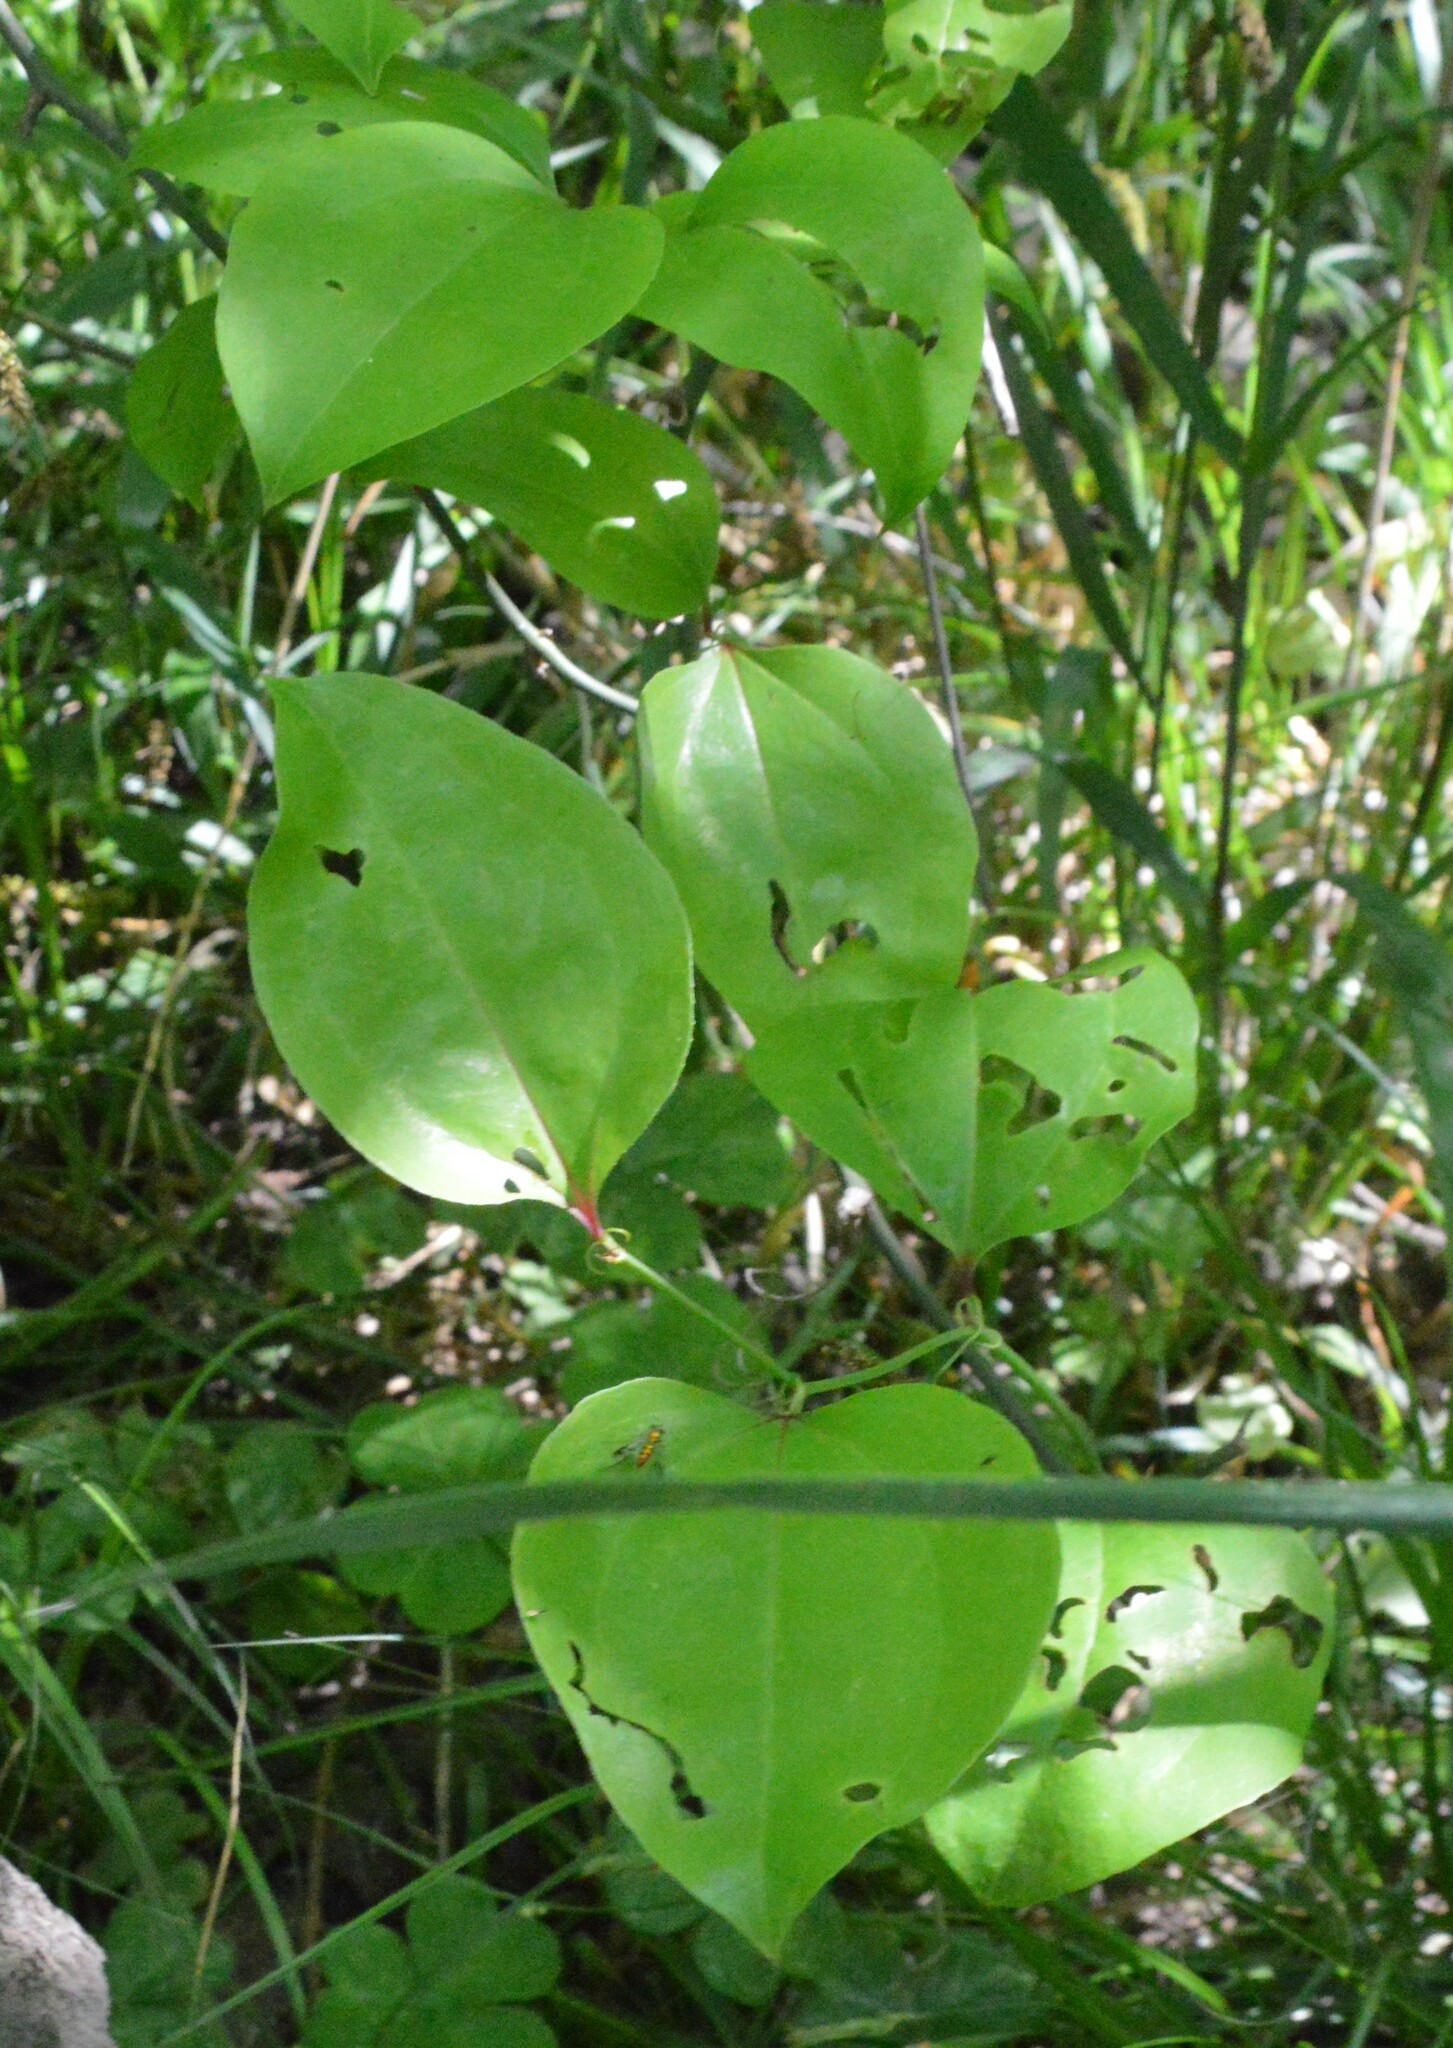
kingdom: Plantae
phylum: Tracheophyta
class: Liliopsida
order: Liliales
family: Smilacaceae
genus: Smilax
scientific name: Smilax rotundifolia
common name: Bullbriar
